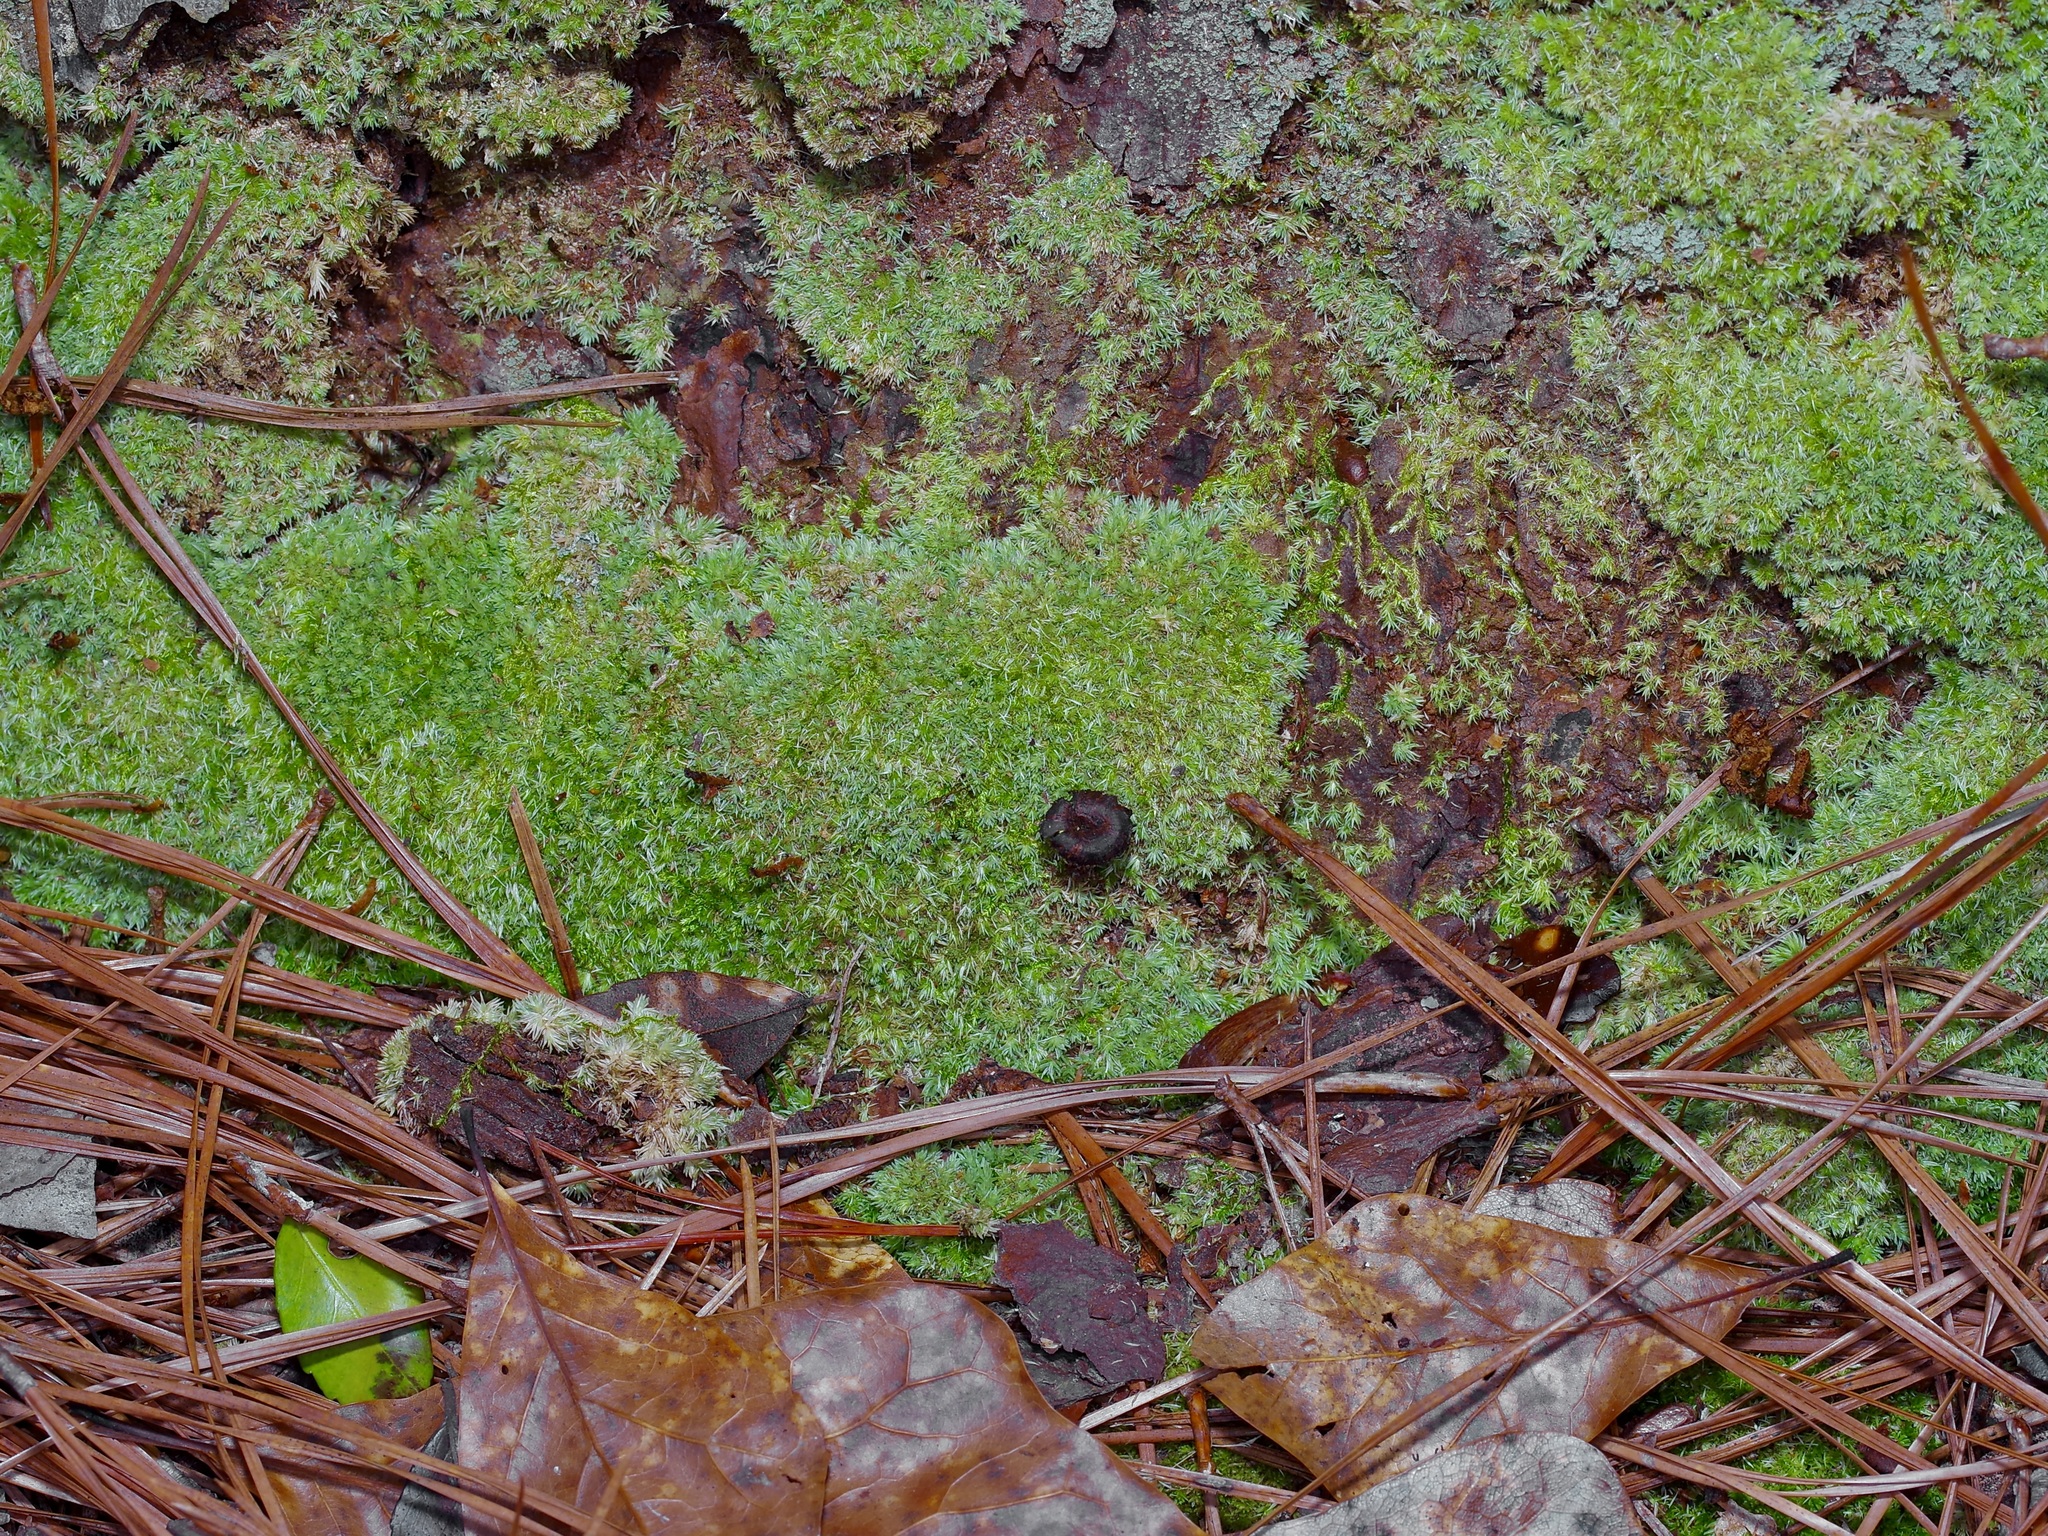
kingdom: Plantae
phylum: Bryophyta
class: Bryopsida
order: Dicranales
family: Leucobryaceae
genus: Leucobryum
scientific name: Leucobryum albidum
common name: White moss
